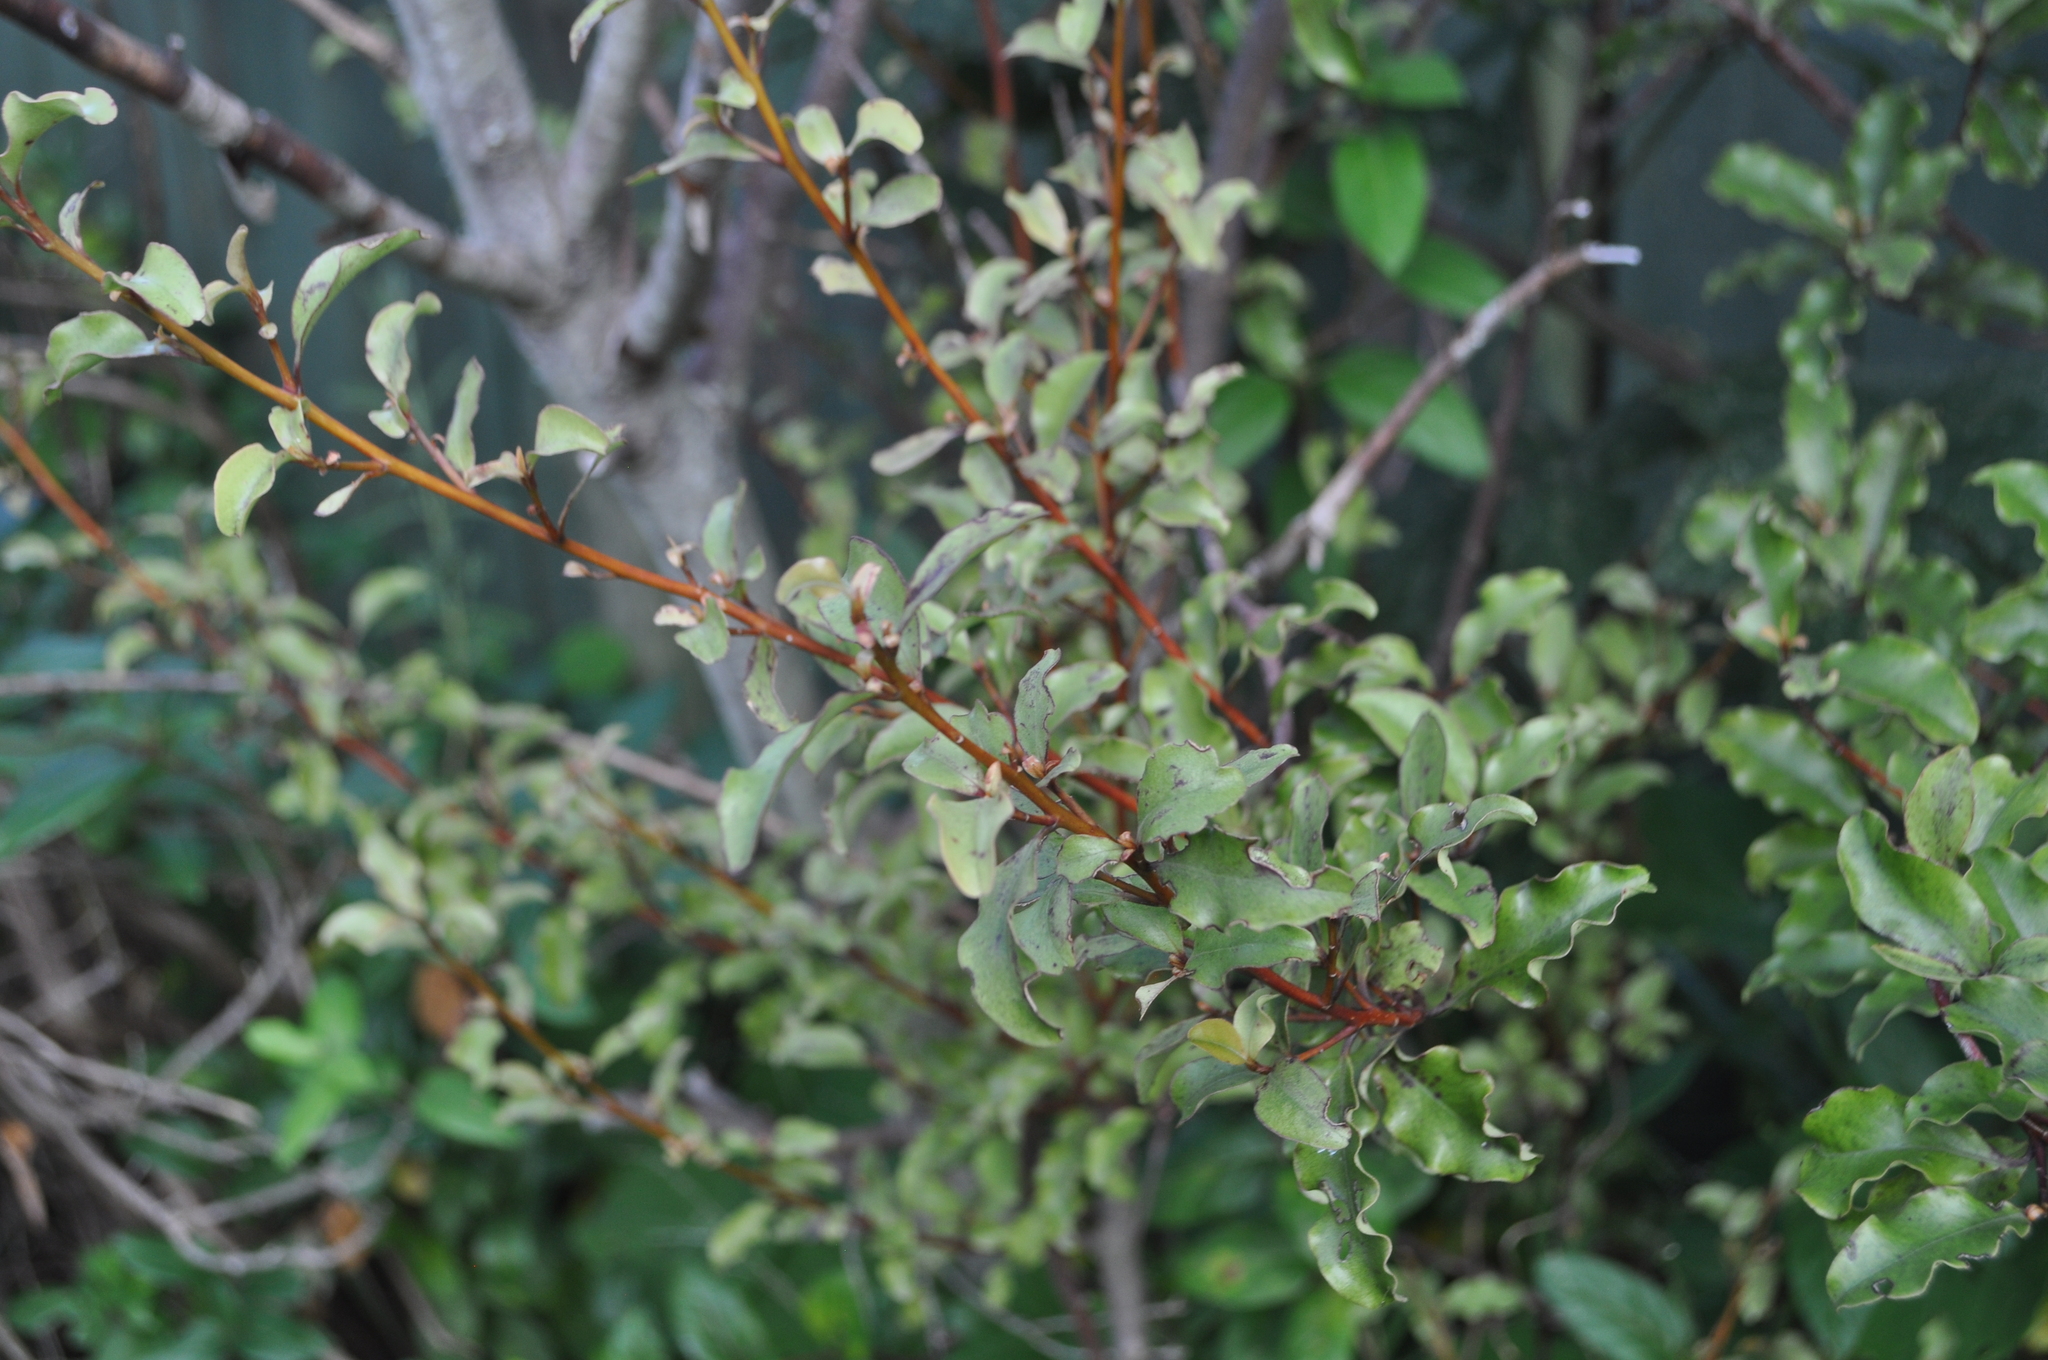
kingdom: Plantae
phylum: Tracheophyta
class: Magnoliopsida
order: Ericales
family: Primulaceae
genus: Myrsine
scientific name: Myrsine australis
